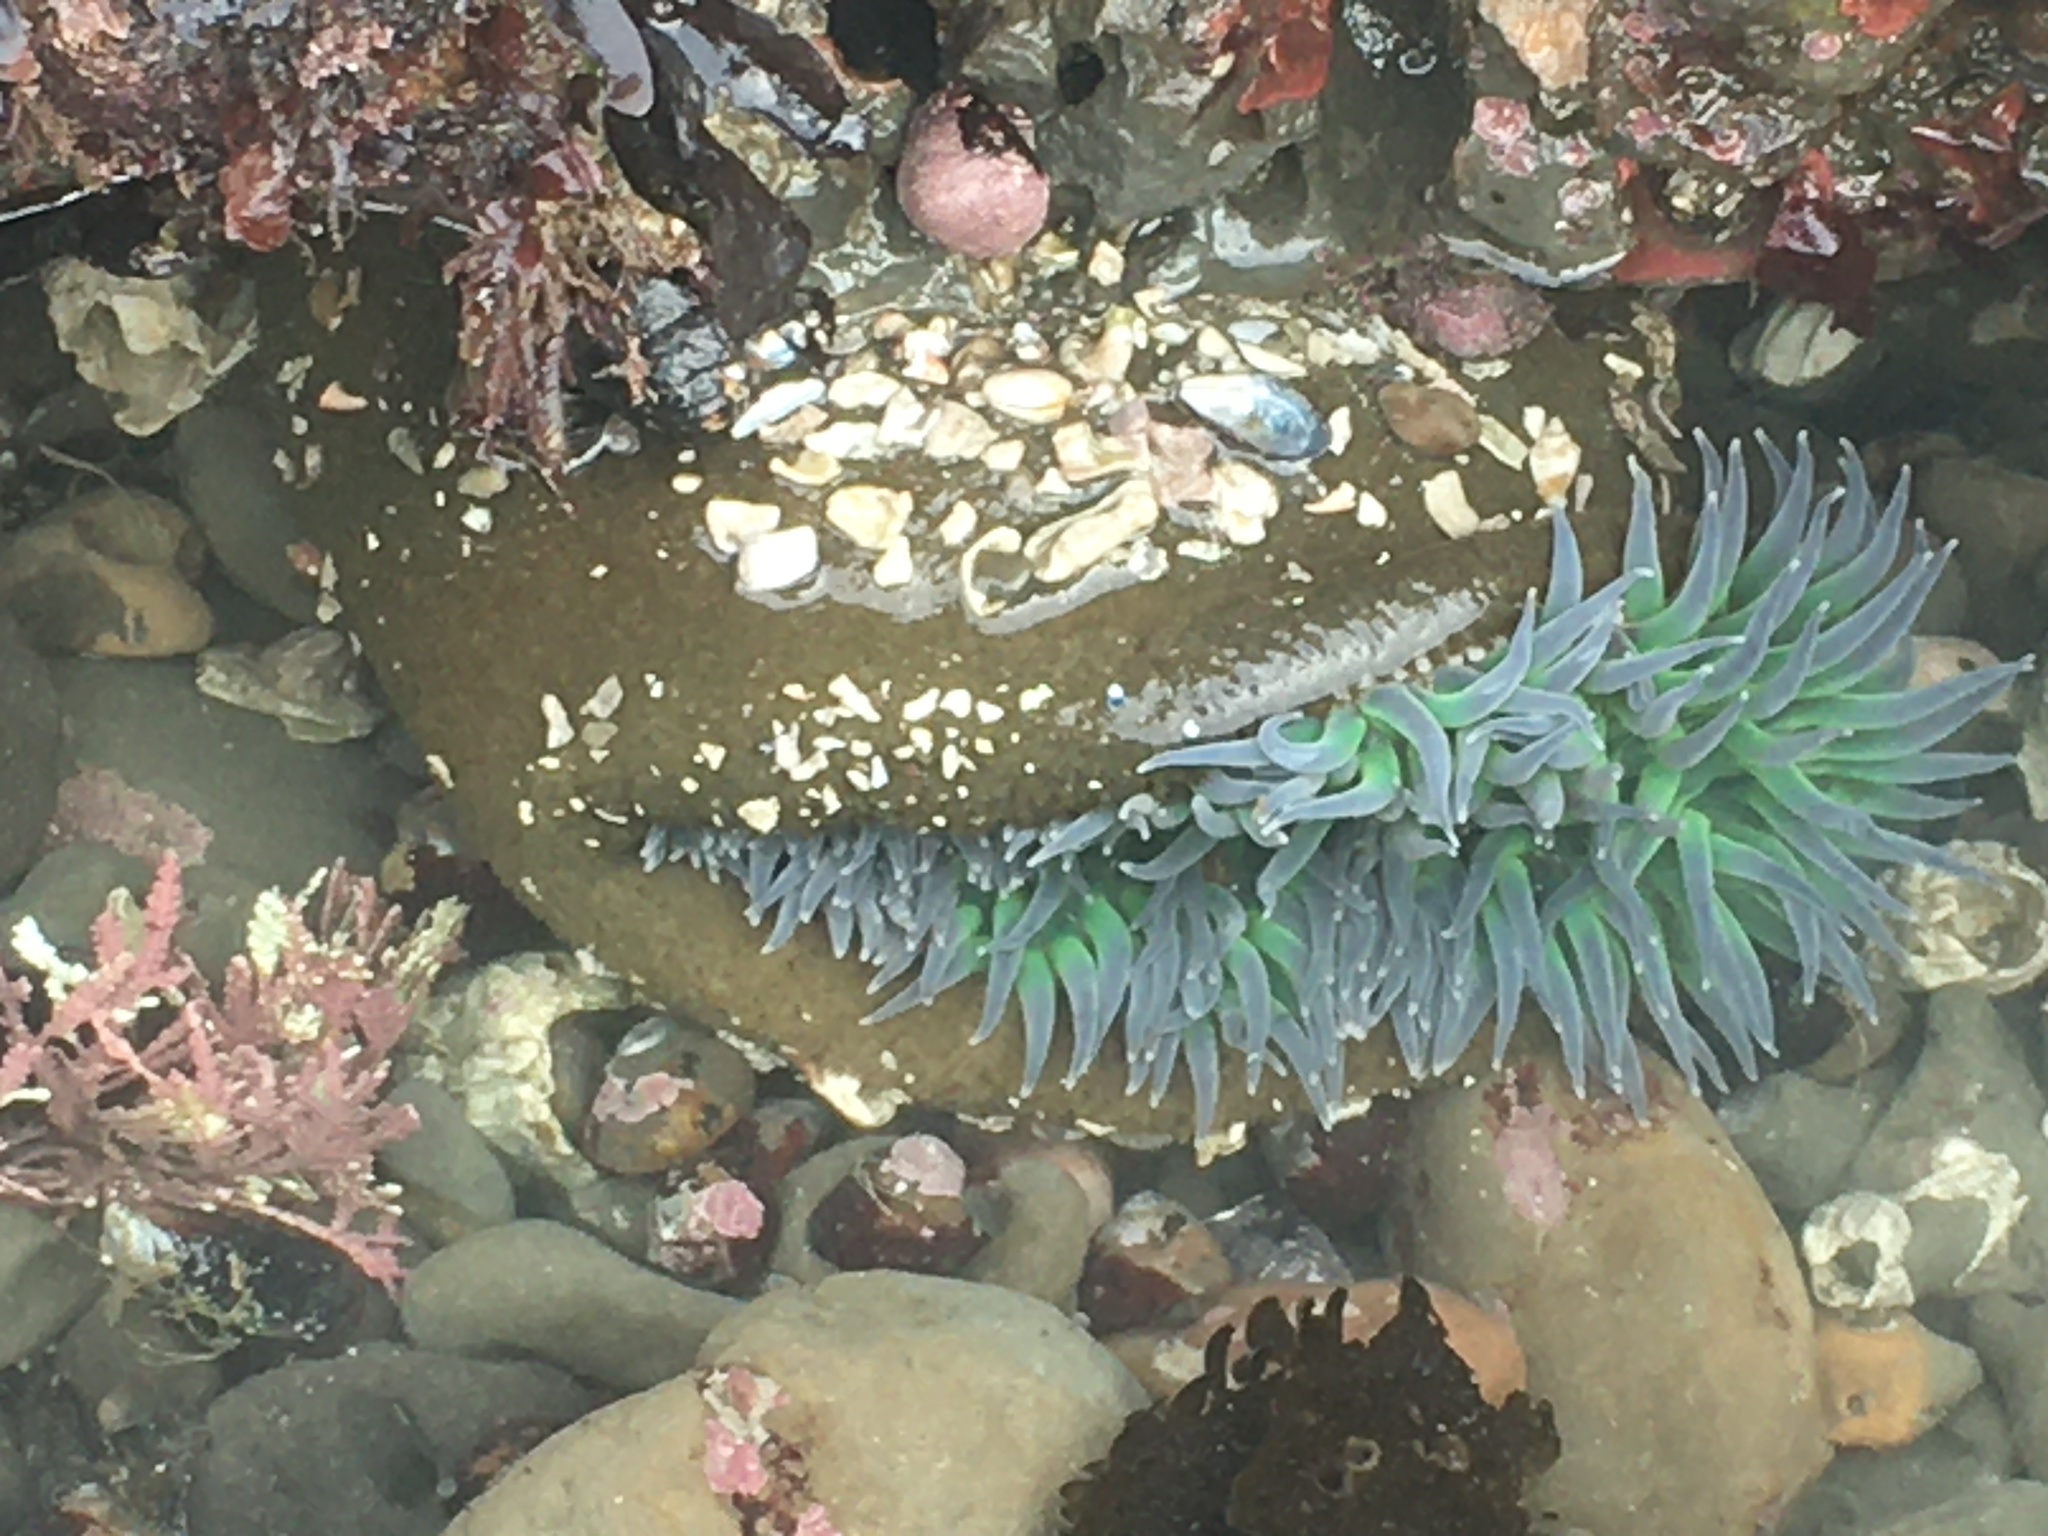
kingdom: Animalia
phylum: Cnidaria
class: Anthozoa
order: Actiniaria
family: Actiniidae
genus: Anthopleura
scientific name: Anthopleura xanthogrammica
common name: Giant green anemone
